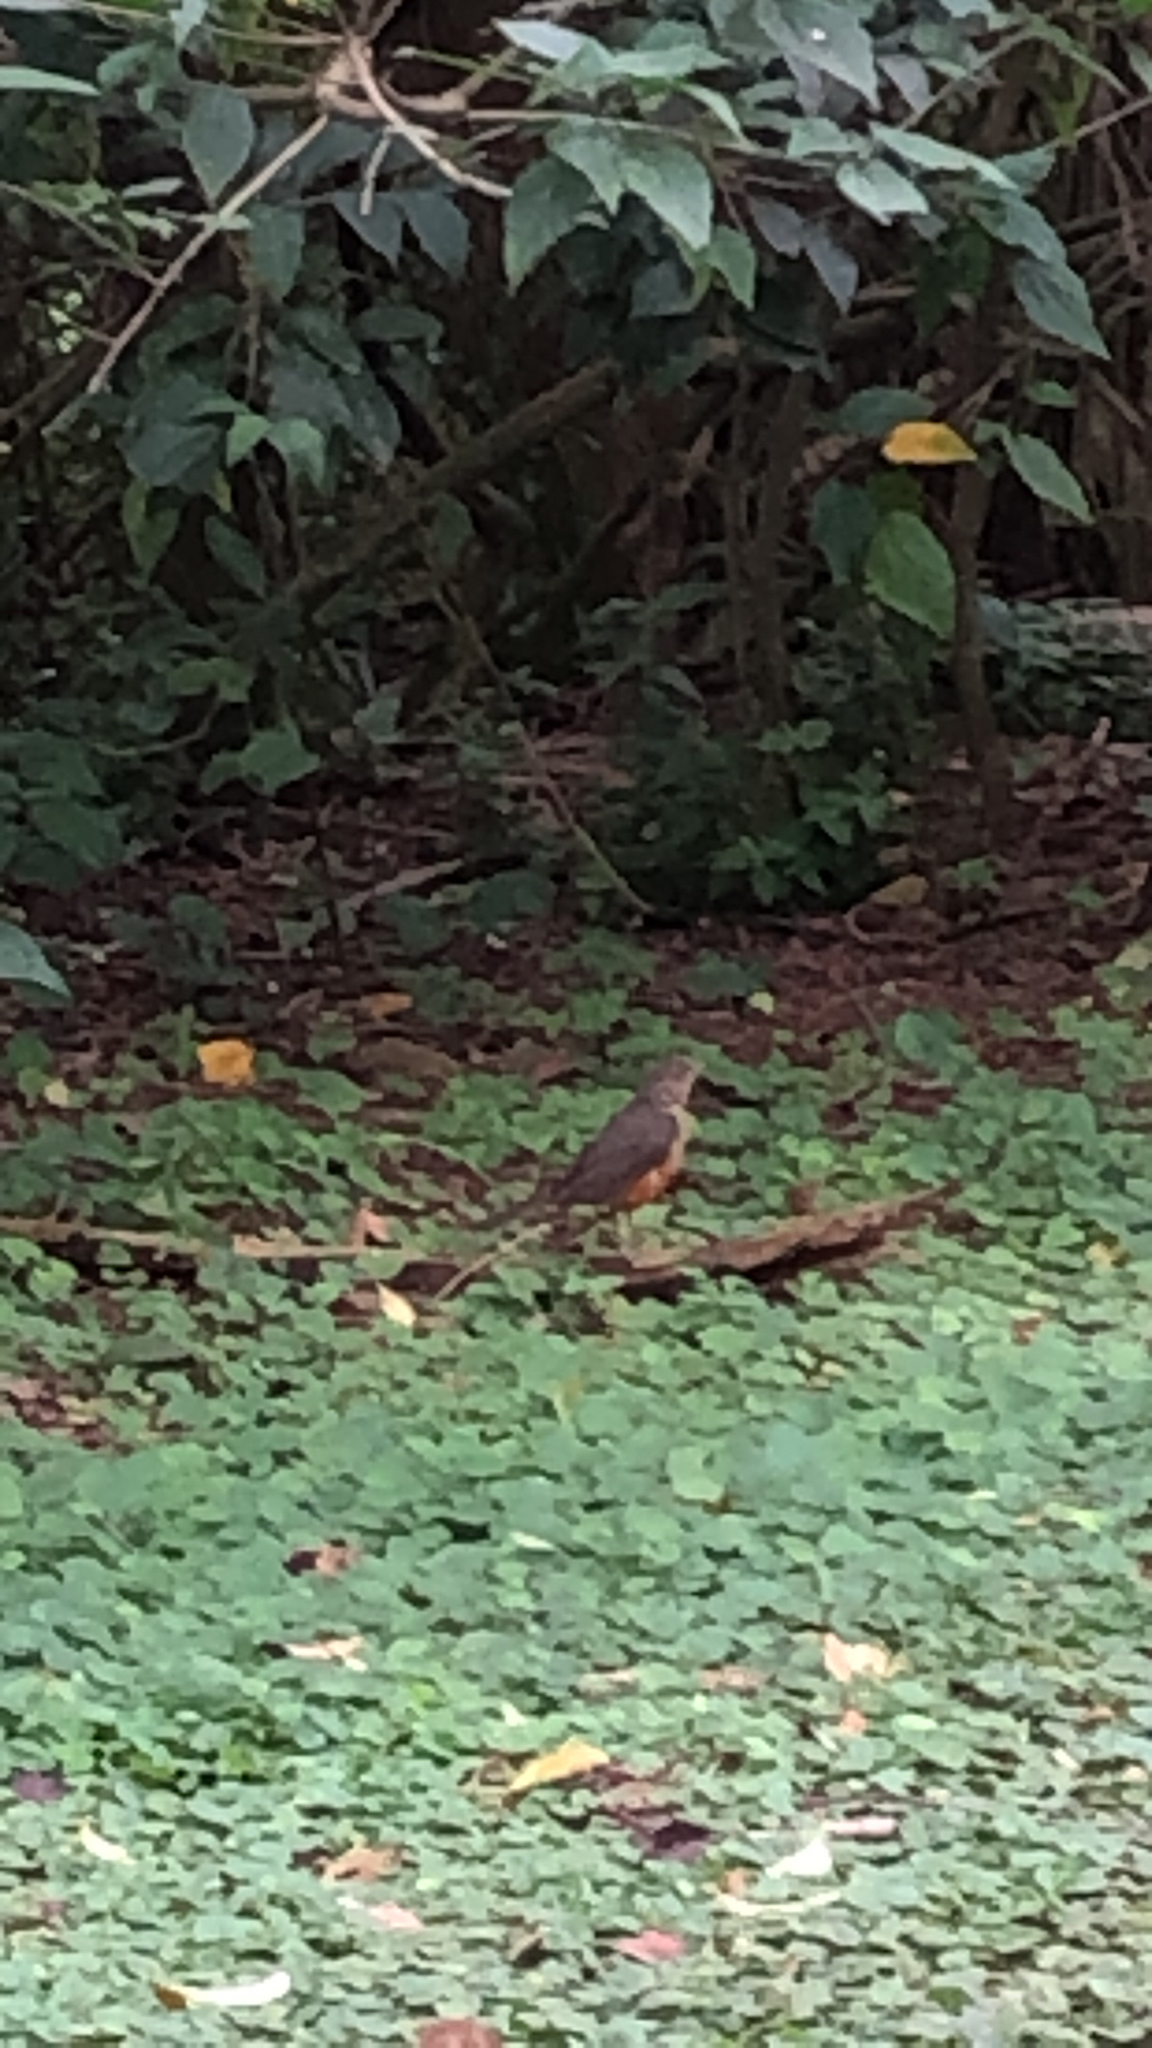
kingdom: Animalia
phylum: Chordata
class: Aves
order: Passeriformes
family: Turdidae
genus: Turdus
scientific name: Turdus rufiventris
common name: Rufous-bellied thrush
